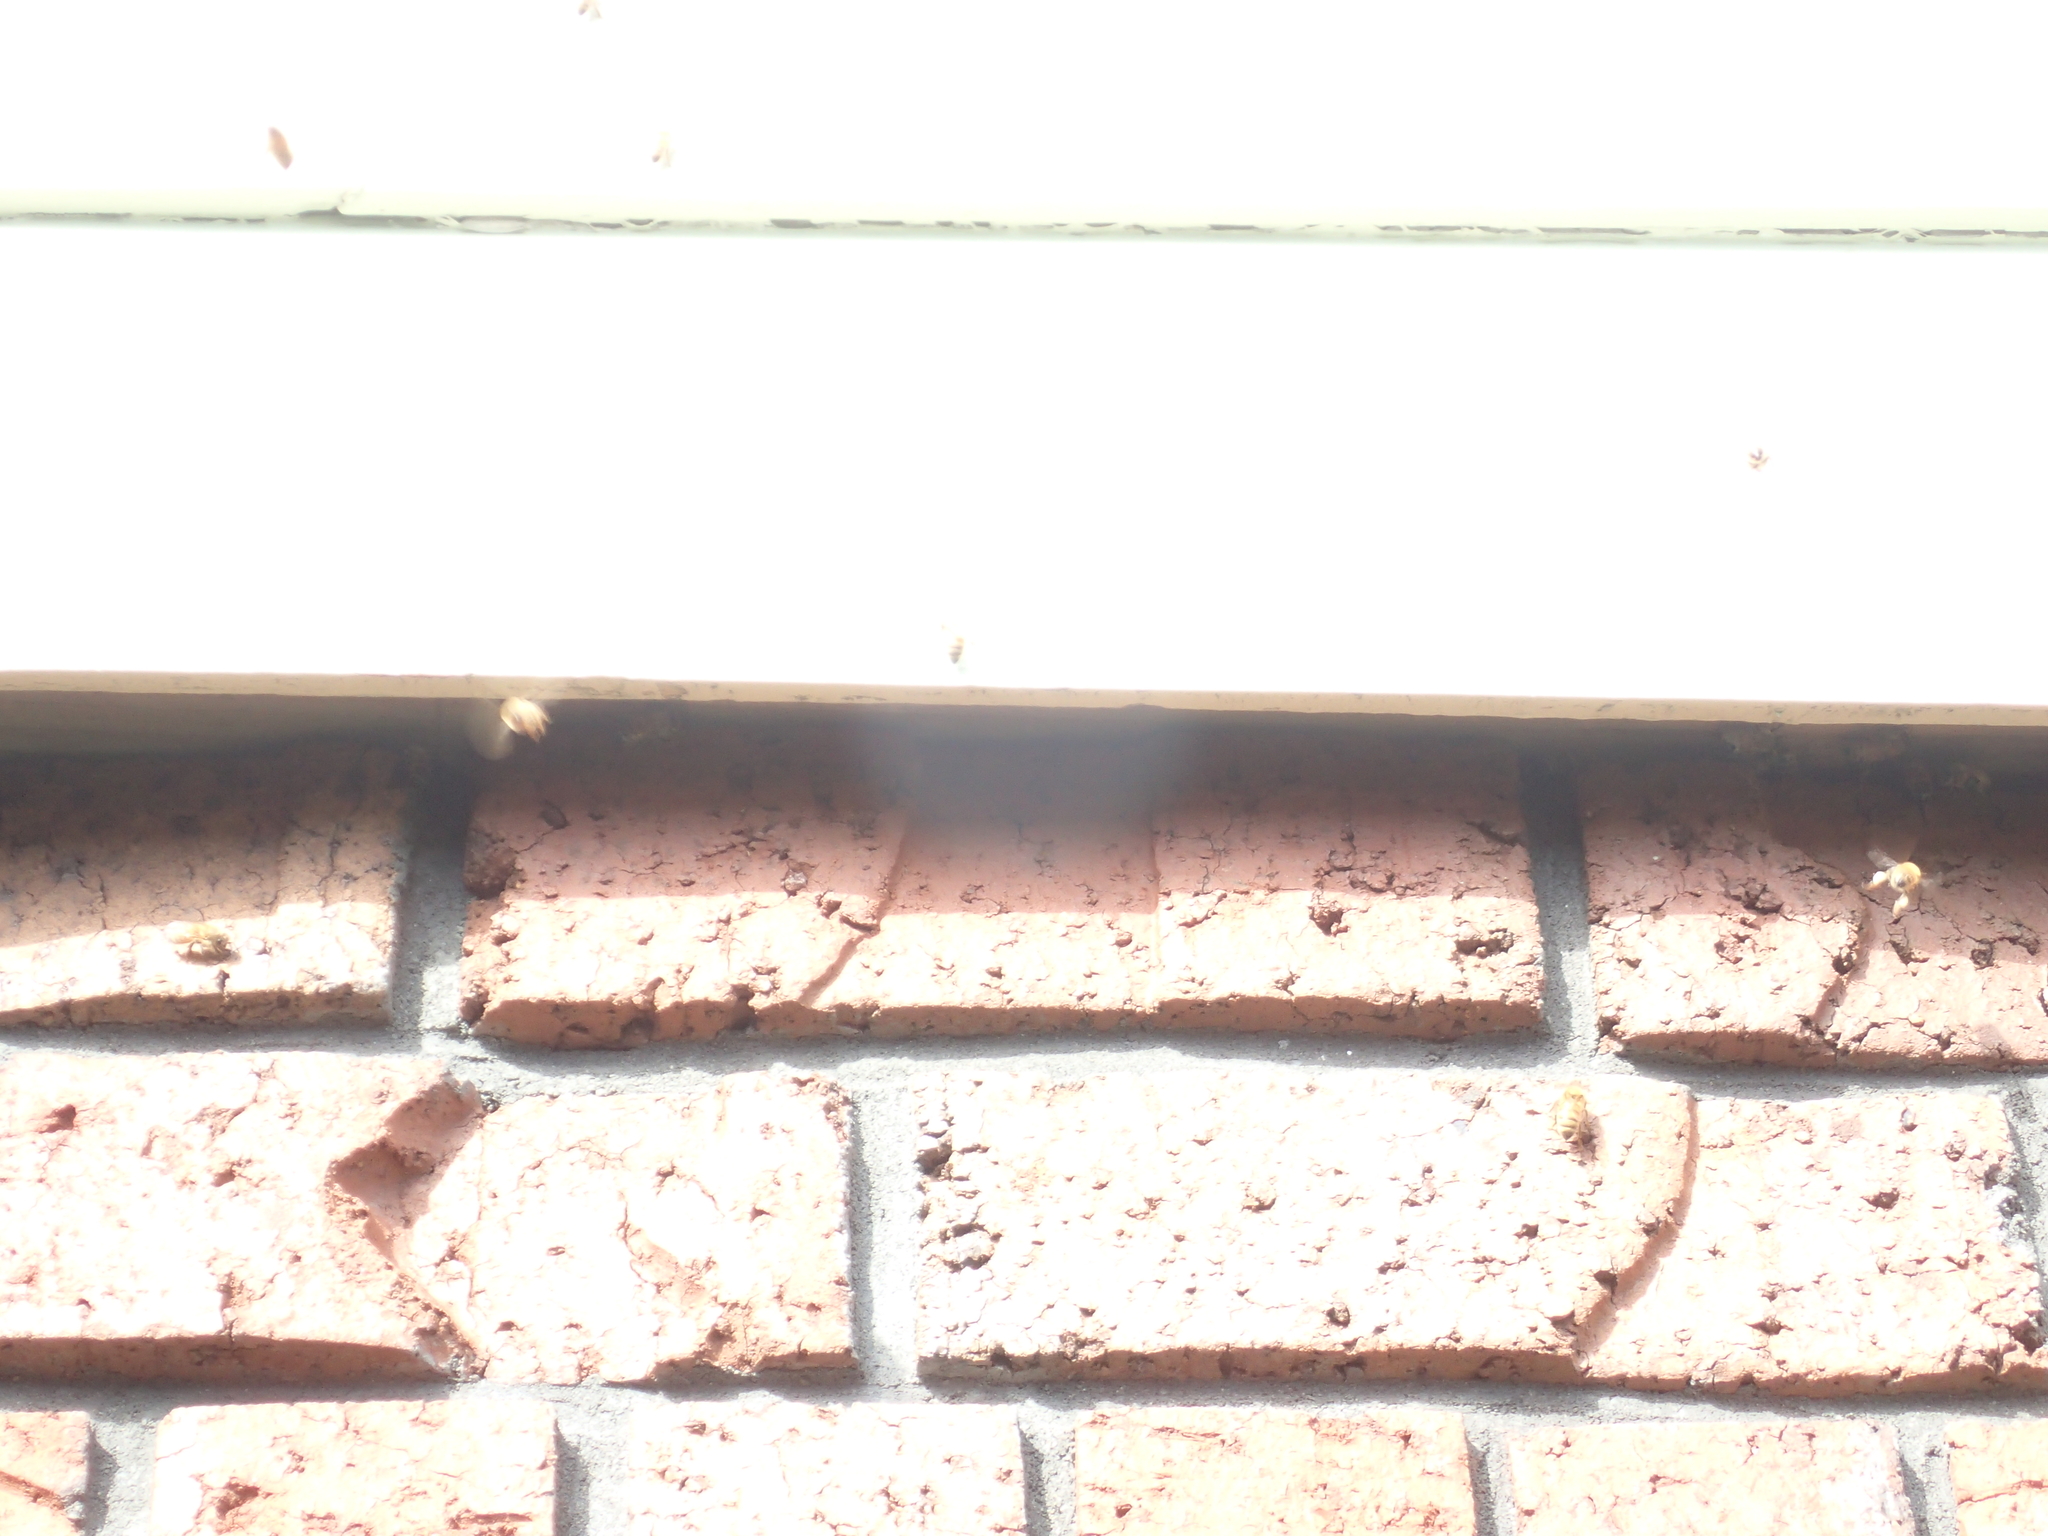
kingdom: Animalia
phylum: Arthropoda
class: Insecta
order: Hymenoptera
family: Apidae
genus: Apis
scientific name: Apis mellifera
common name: Honey bee
